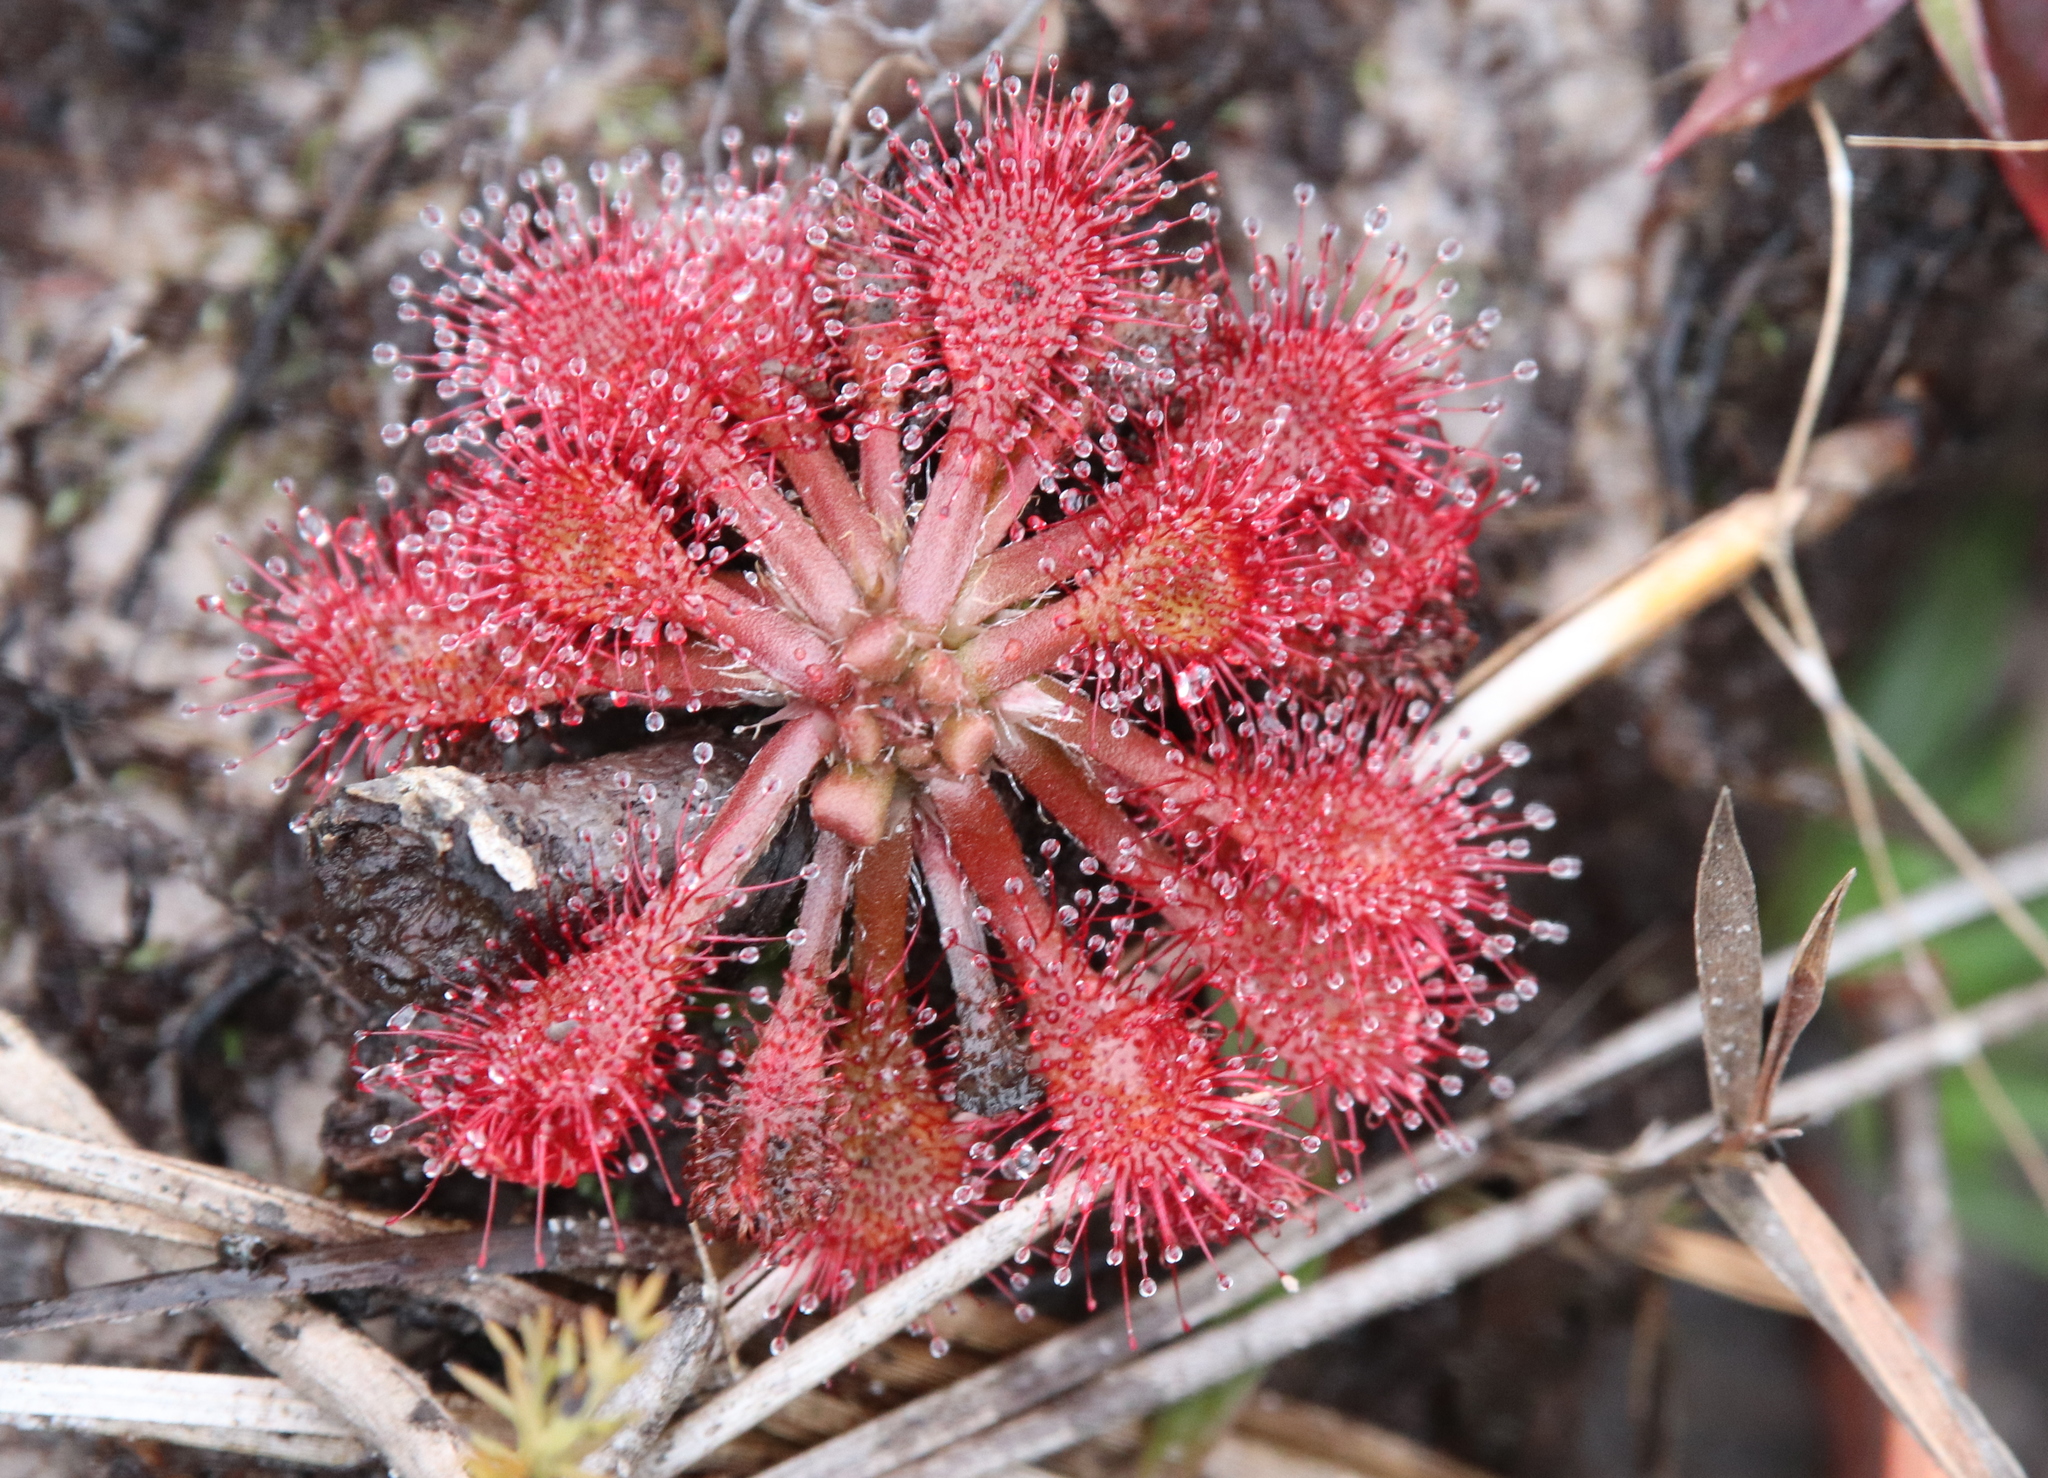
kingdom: Plantae
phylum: Tracheophyta
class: Magnoliopsida
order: Caryophyllales
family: Droseraceae
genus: Drosera
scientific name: Drosera capillaris
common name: Pink sundew
